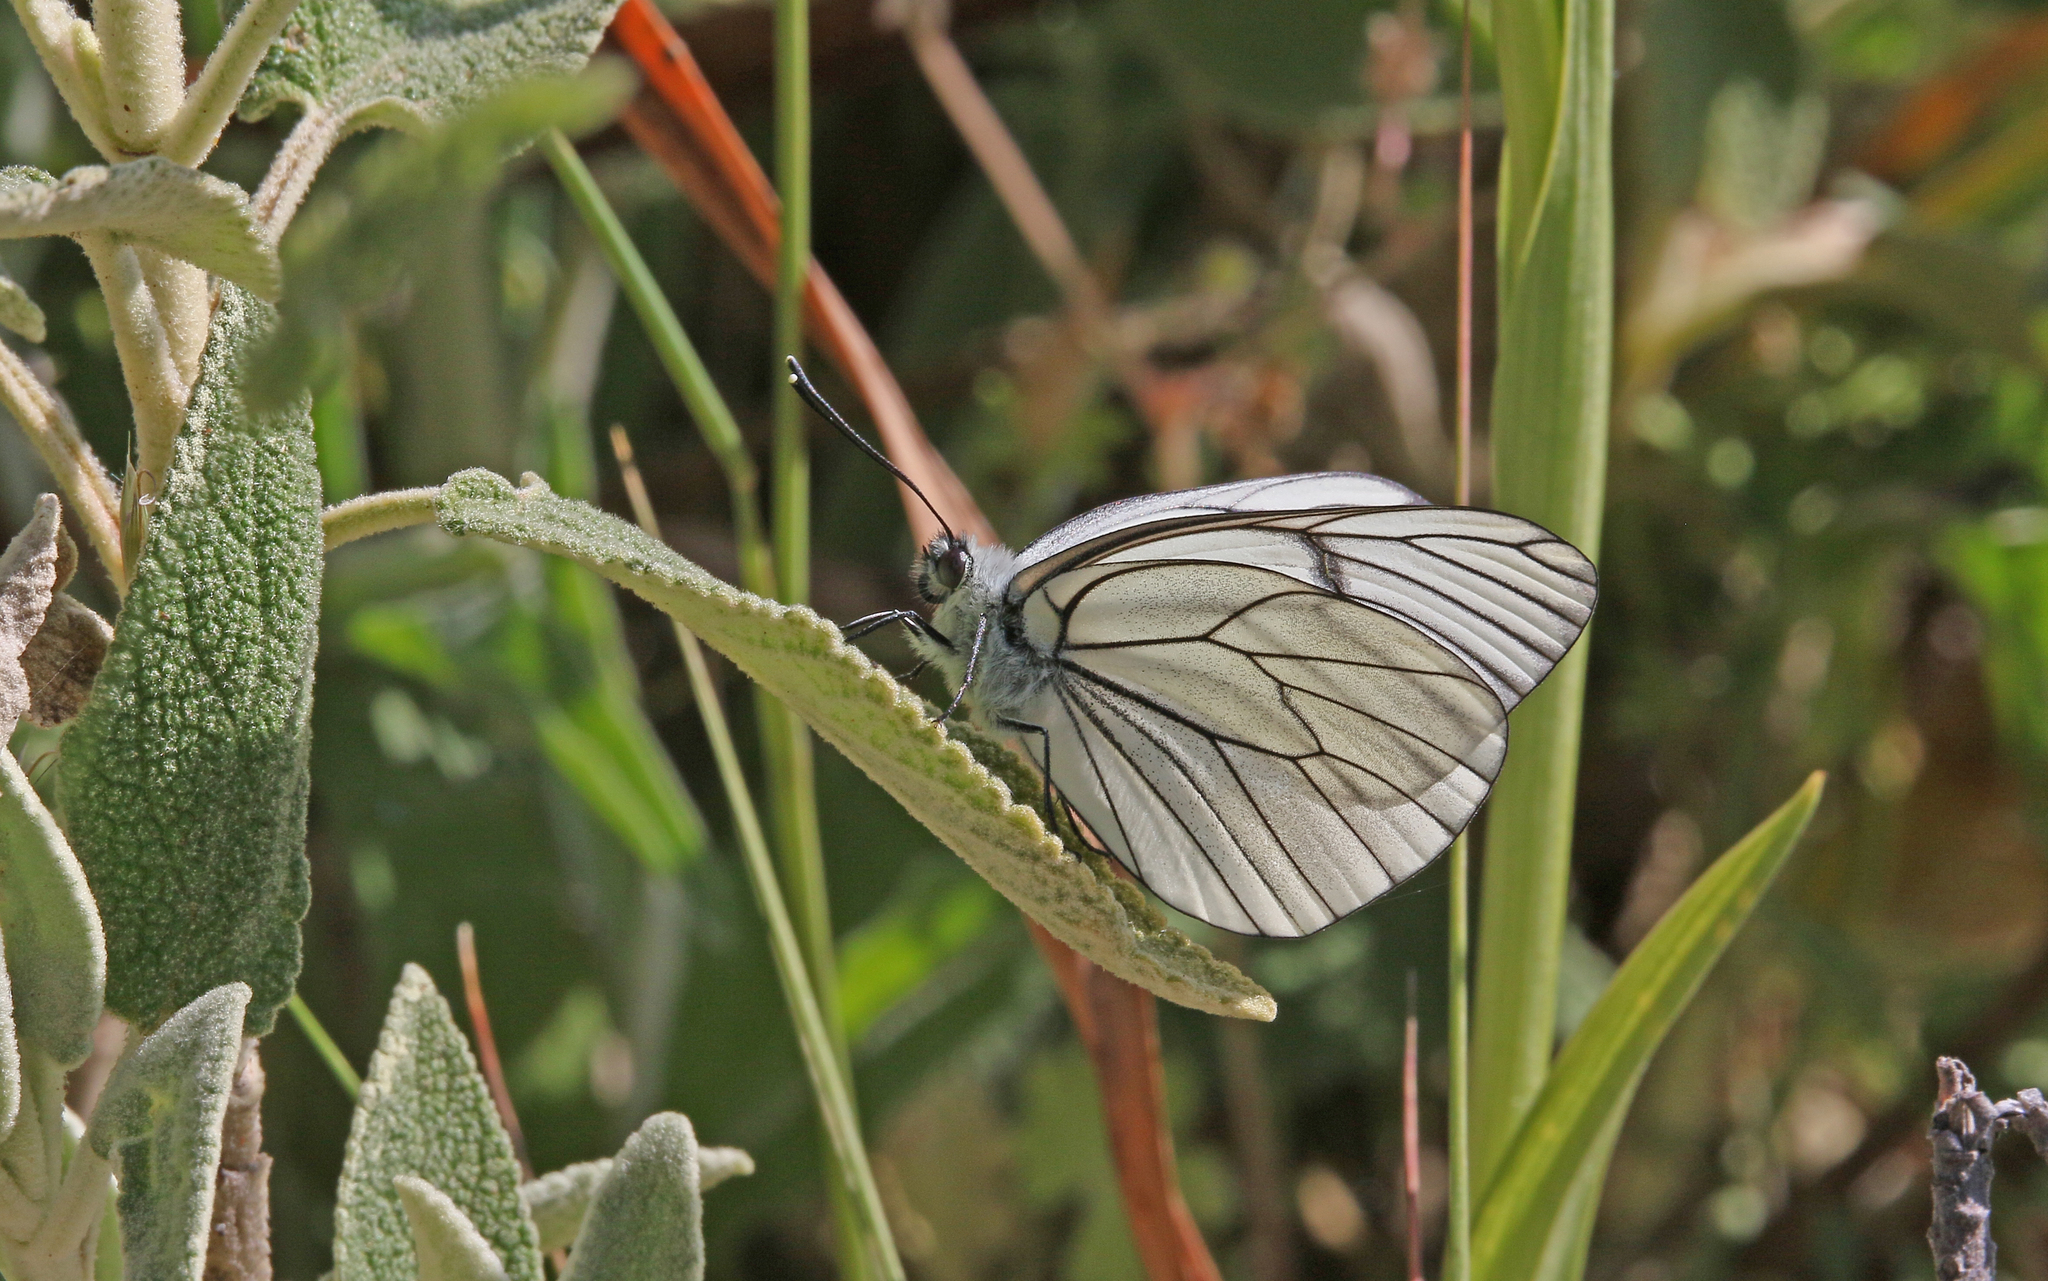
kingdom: Animalia
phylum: Arthropoda
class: Insecta
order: Lepidoptera
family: Pieridae
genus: Aporia
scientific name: Aporia crataegi
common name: Black-veined white
